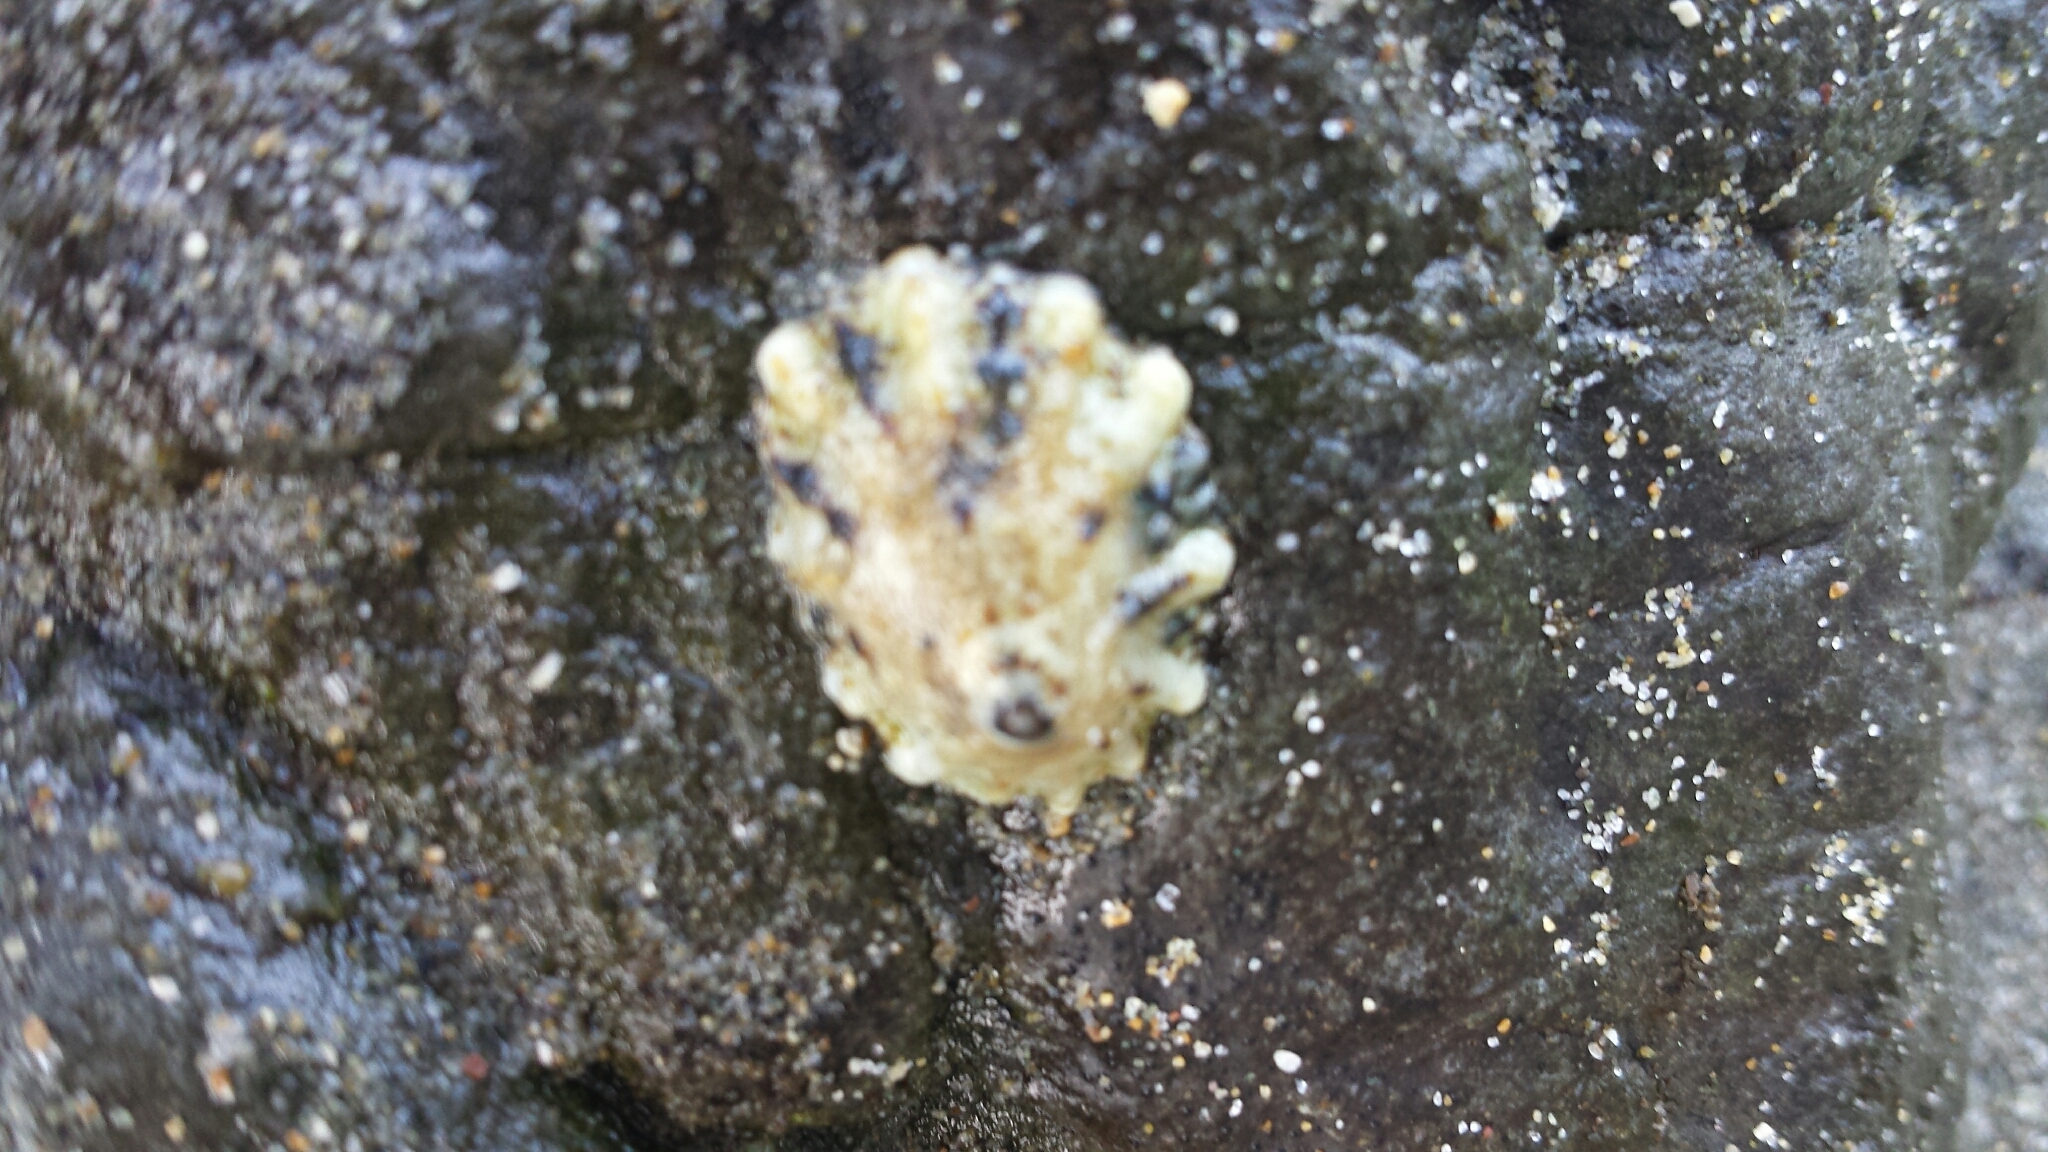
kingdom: Animalia
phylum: Mollusca
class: Gastropoda
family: Lottiidae
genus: Lottia
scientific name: Lottia scabra
